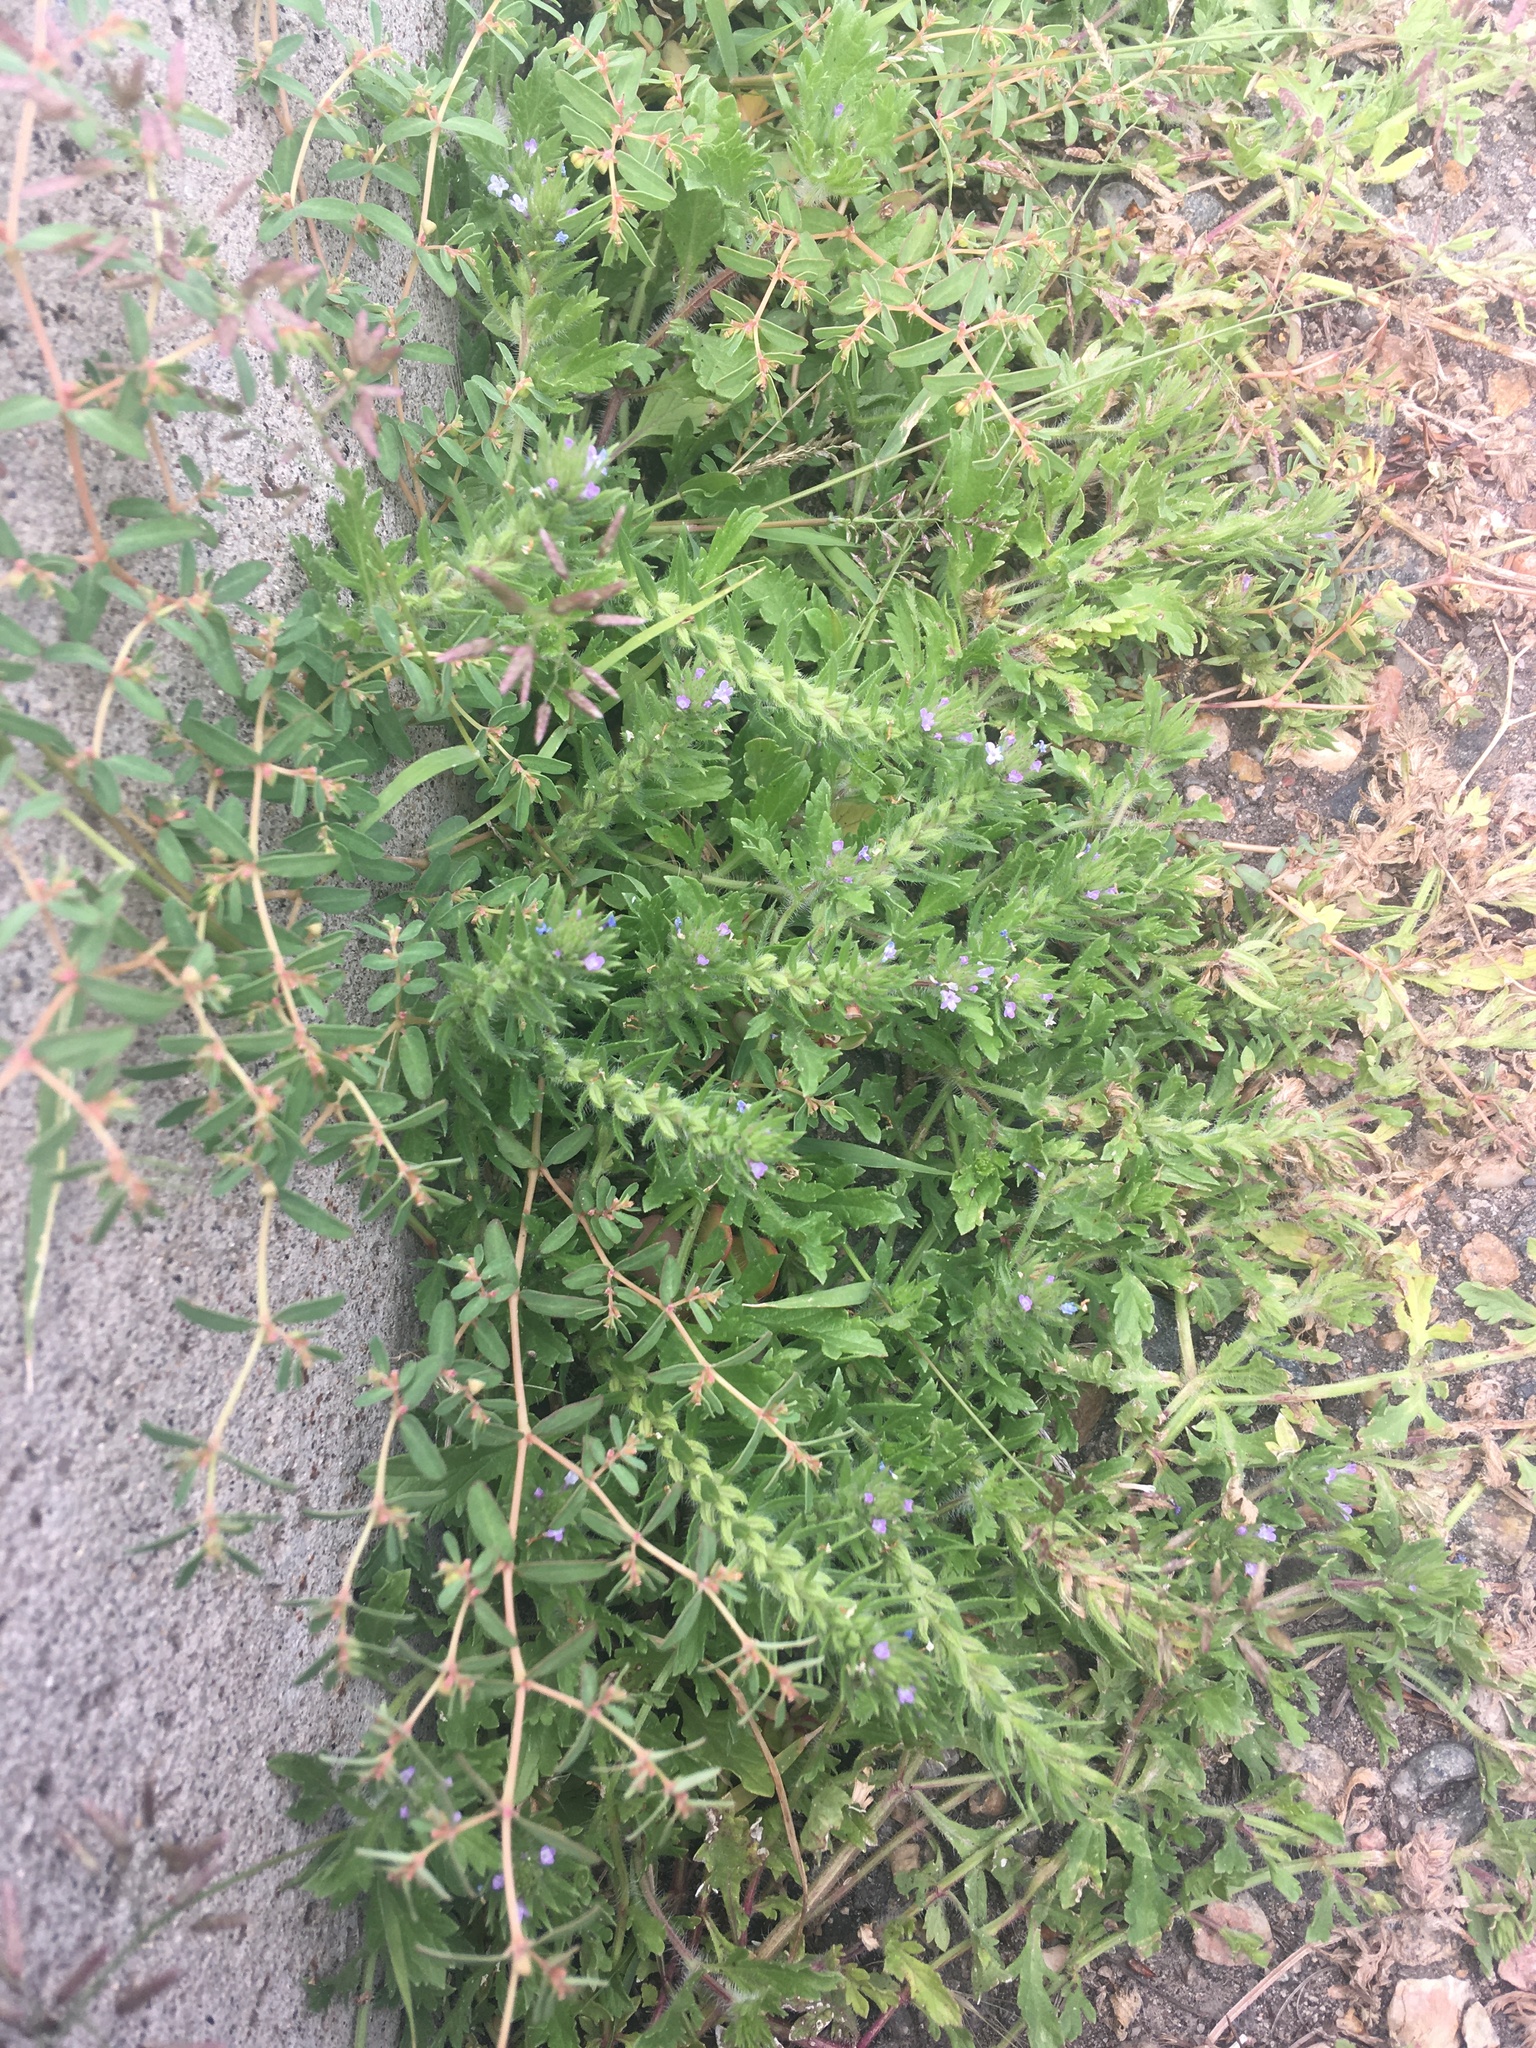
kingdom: Plantae
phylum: Tracheophyta
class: Magnoliopsida
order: Lamiales
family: Verbenaceae
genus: Verbena
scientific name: Verbena bracteata
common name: Bracted vervain
